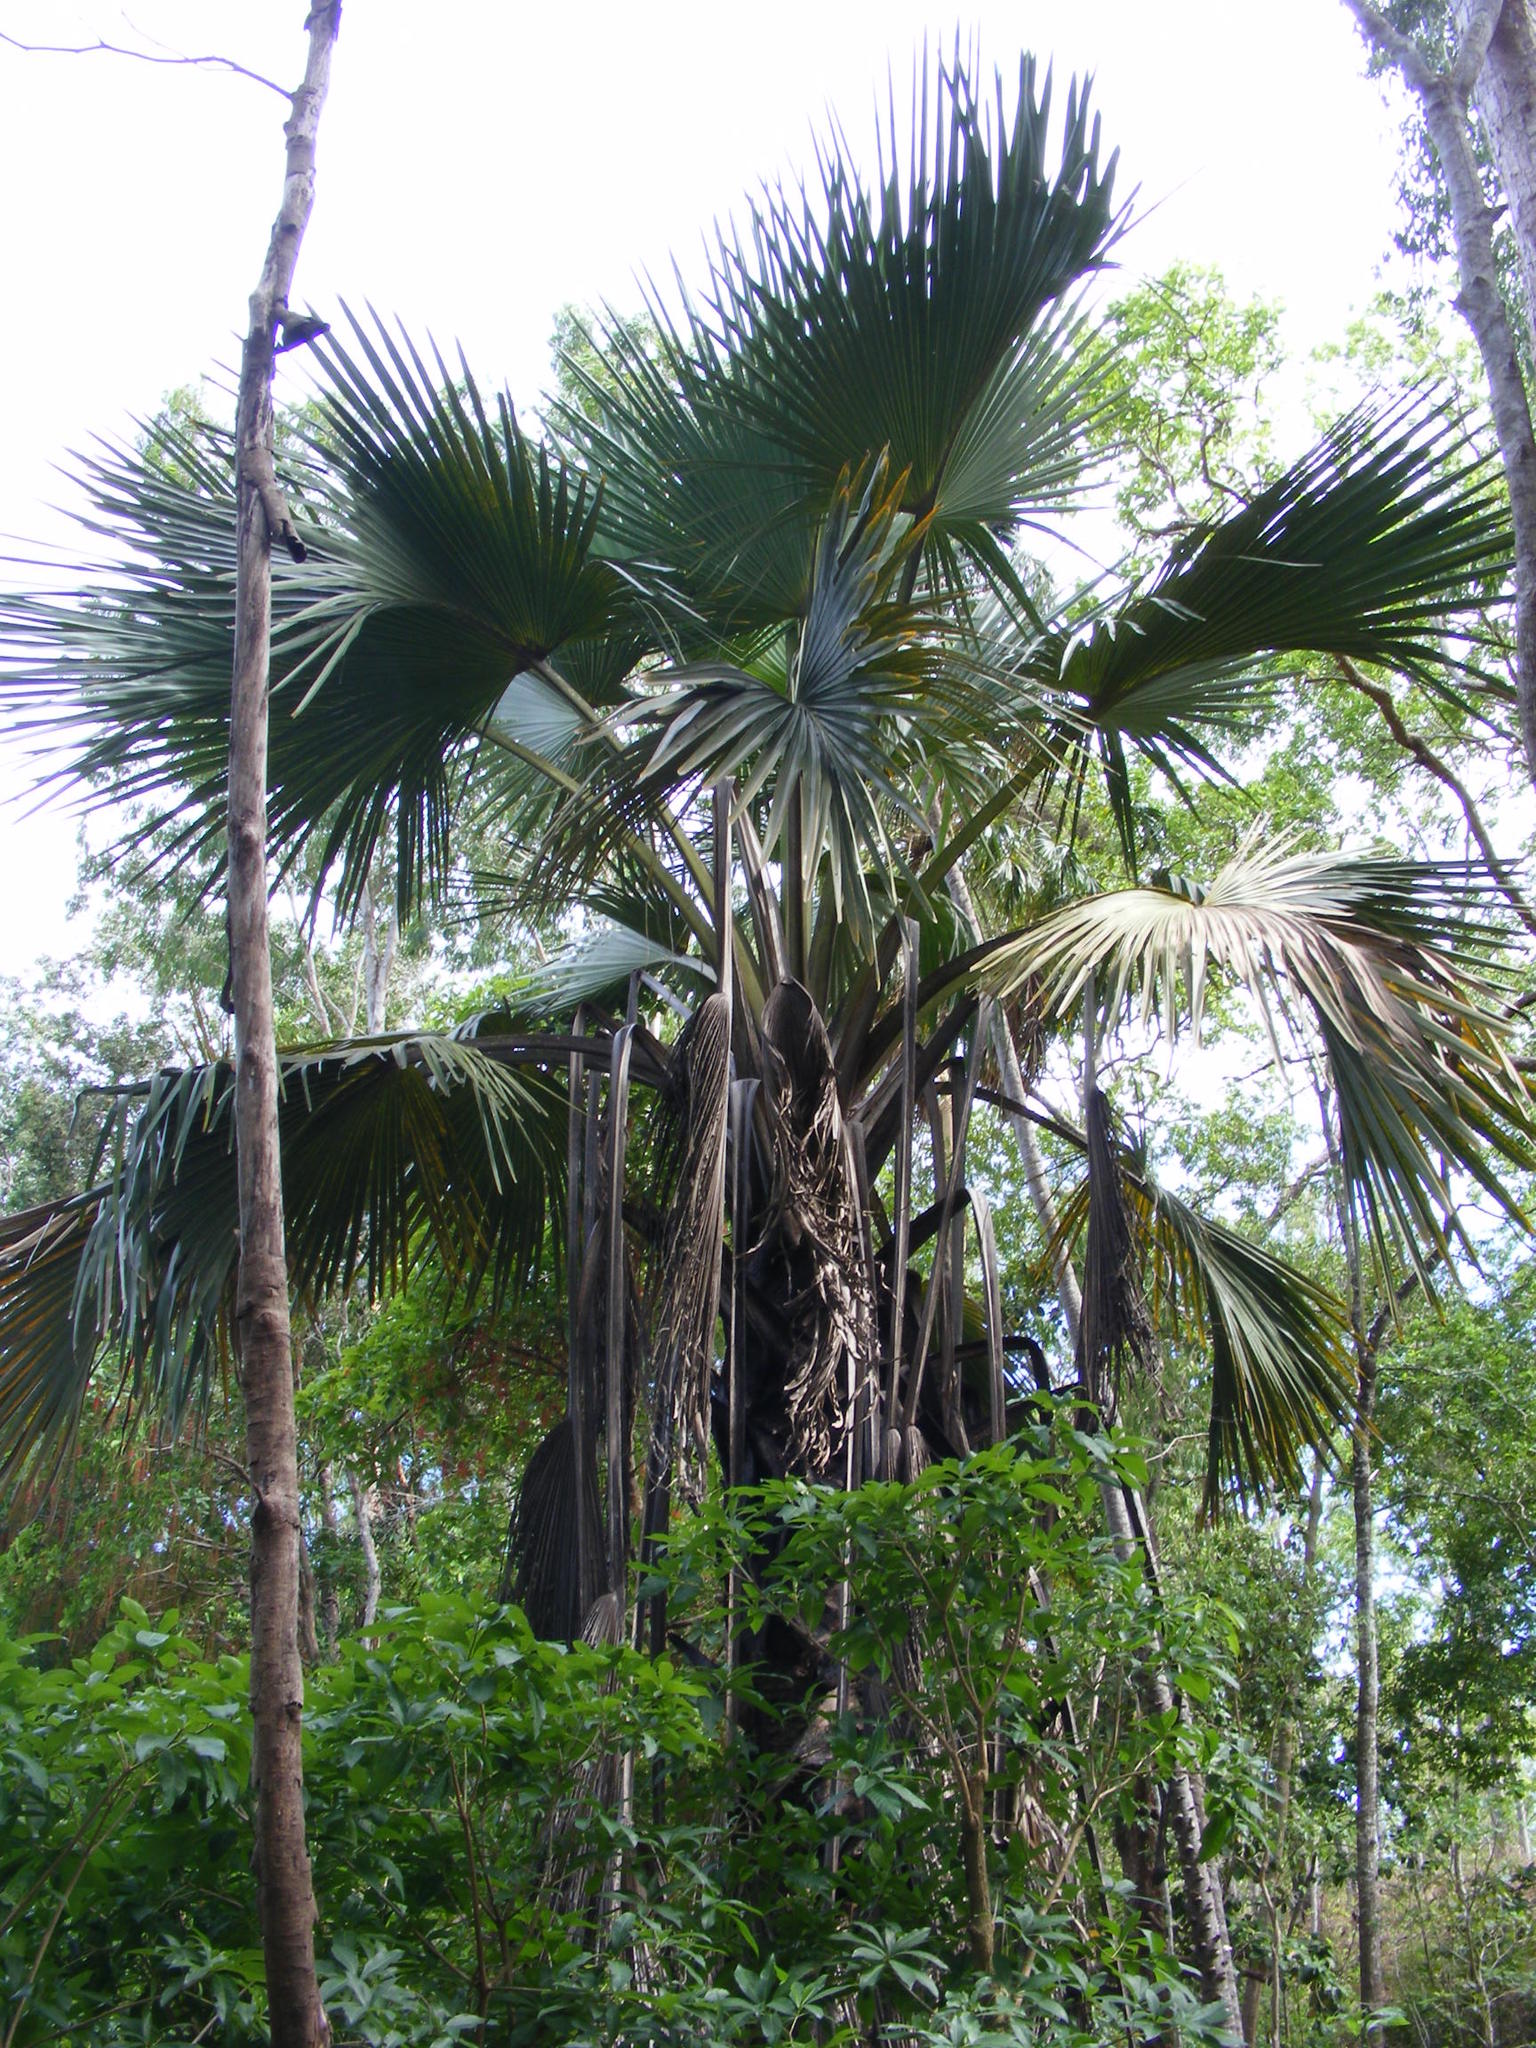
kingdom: Plantae
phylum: Tracheophyta
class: Liliopsida
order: Arecales
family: Arecaceae
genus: Corypha
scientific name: Corypha utan
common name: Buri palm
